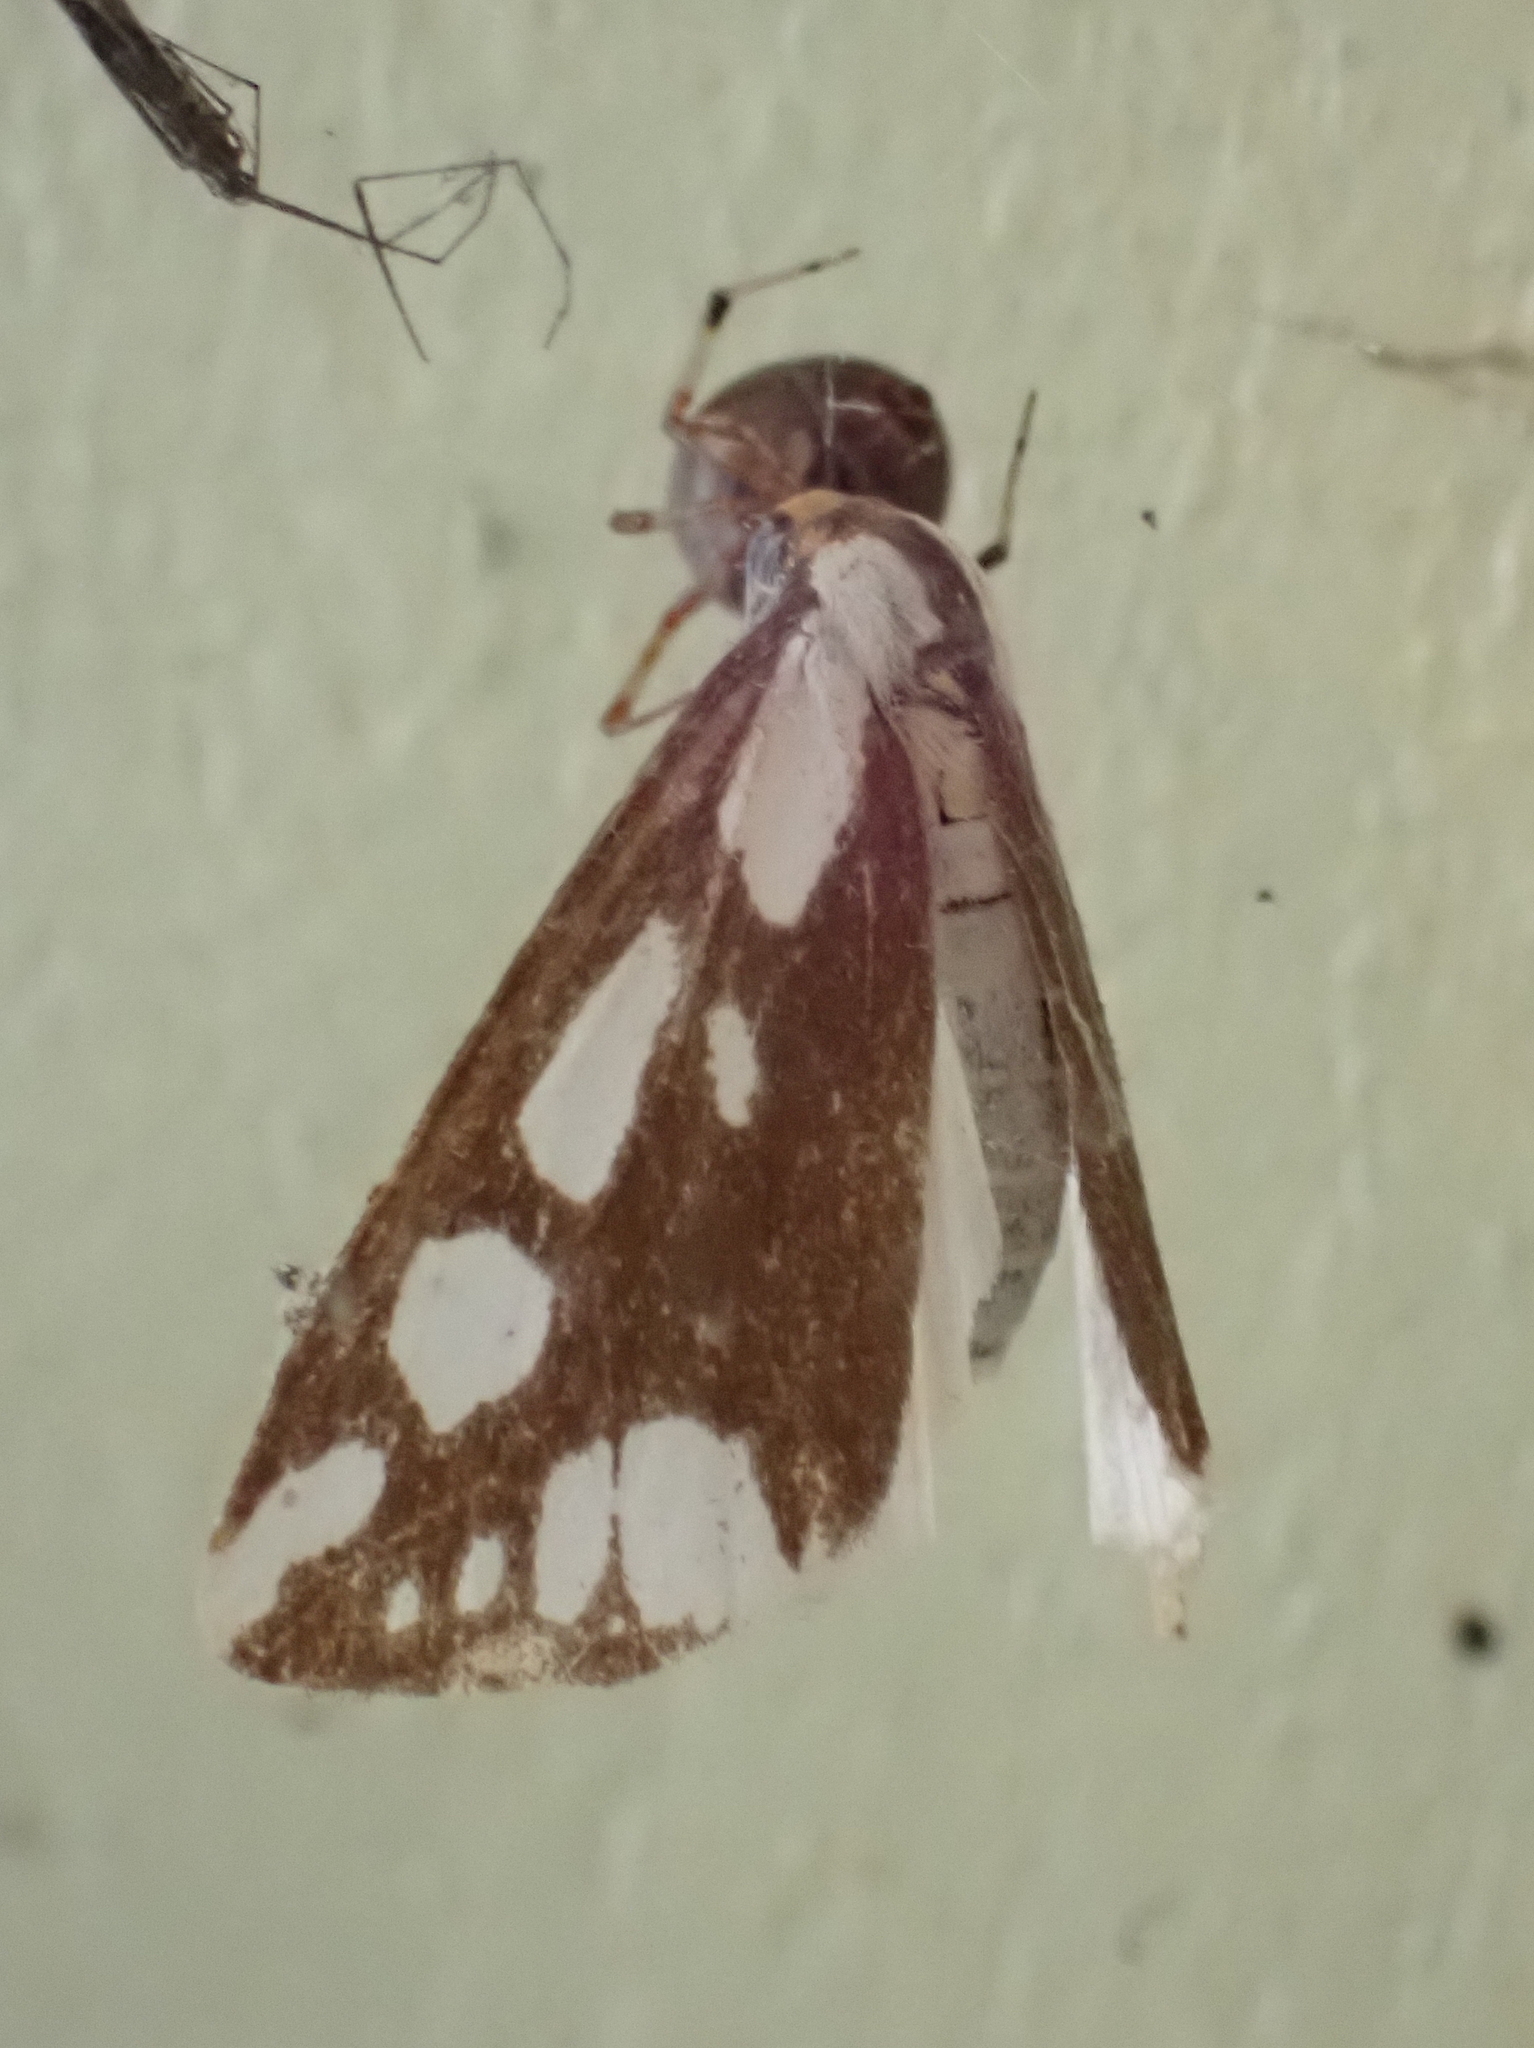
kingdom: Animalia
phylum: Arthropoda
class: Insecta
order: Lepidoptera
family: Erebidae
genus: Haploa
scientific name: Haploa confusa
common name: Confused haploa moth
